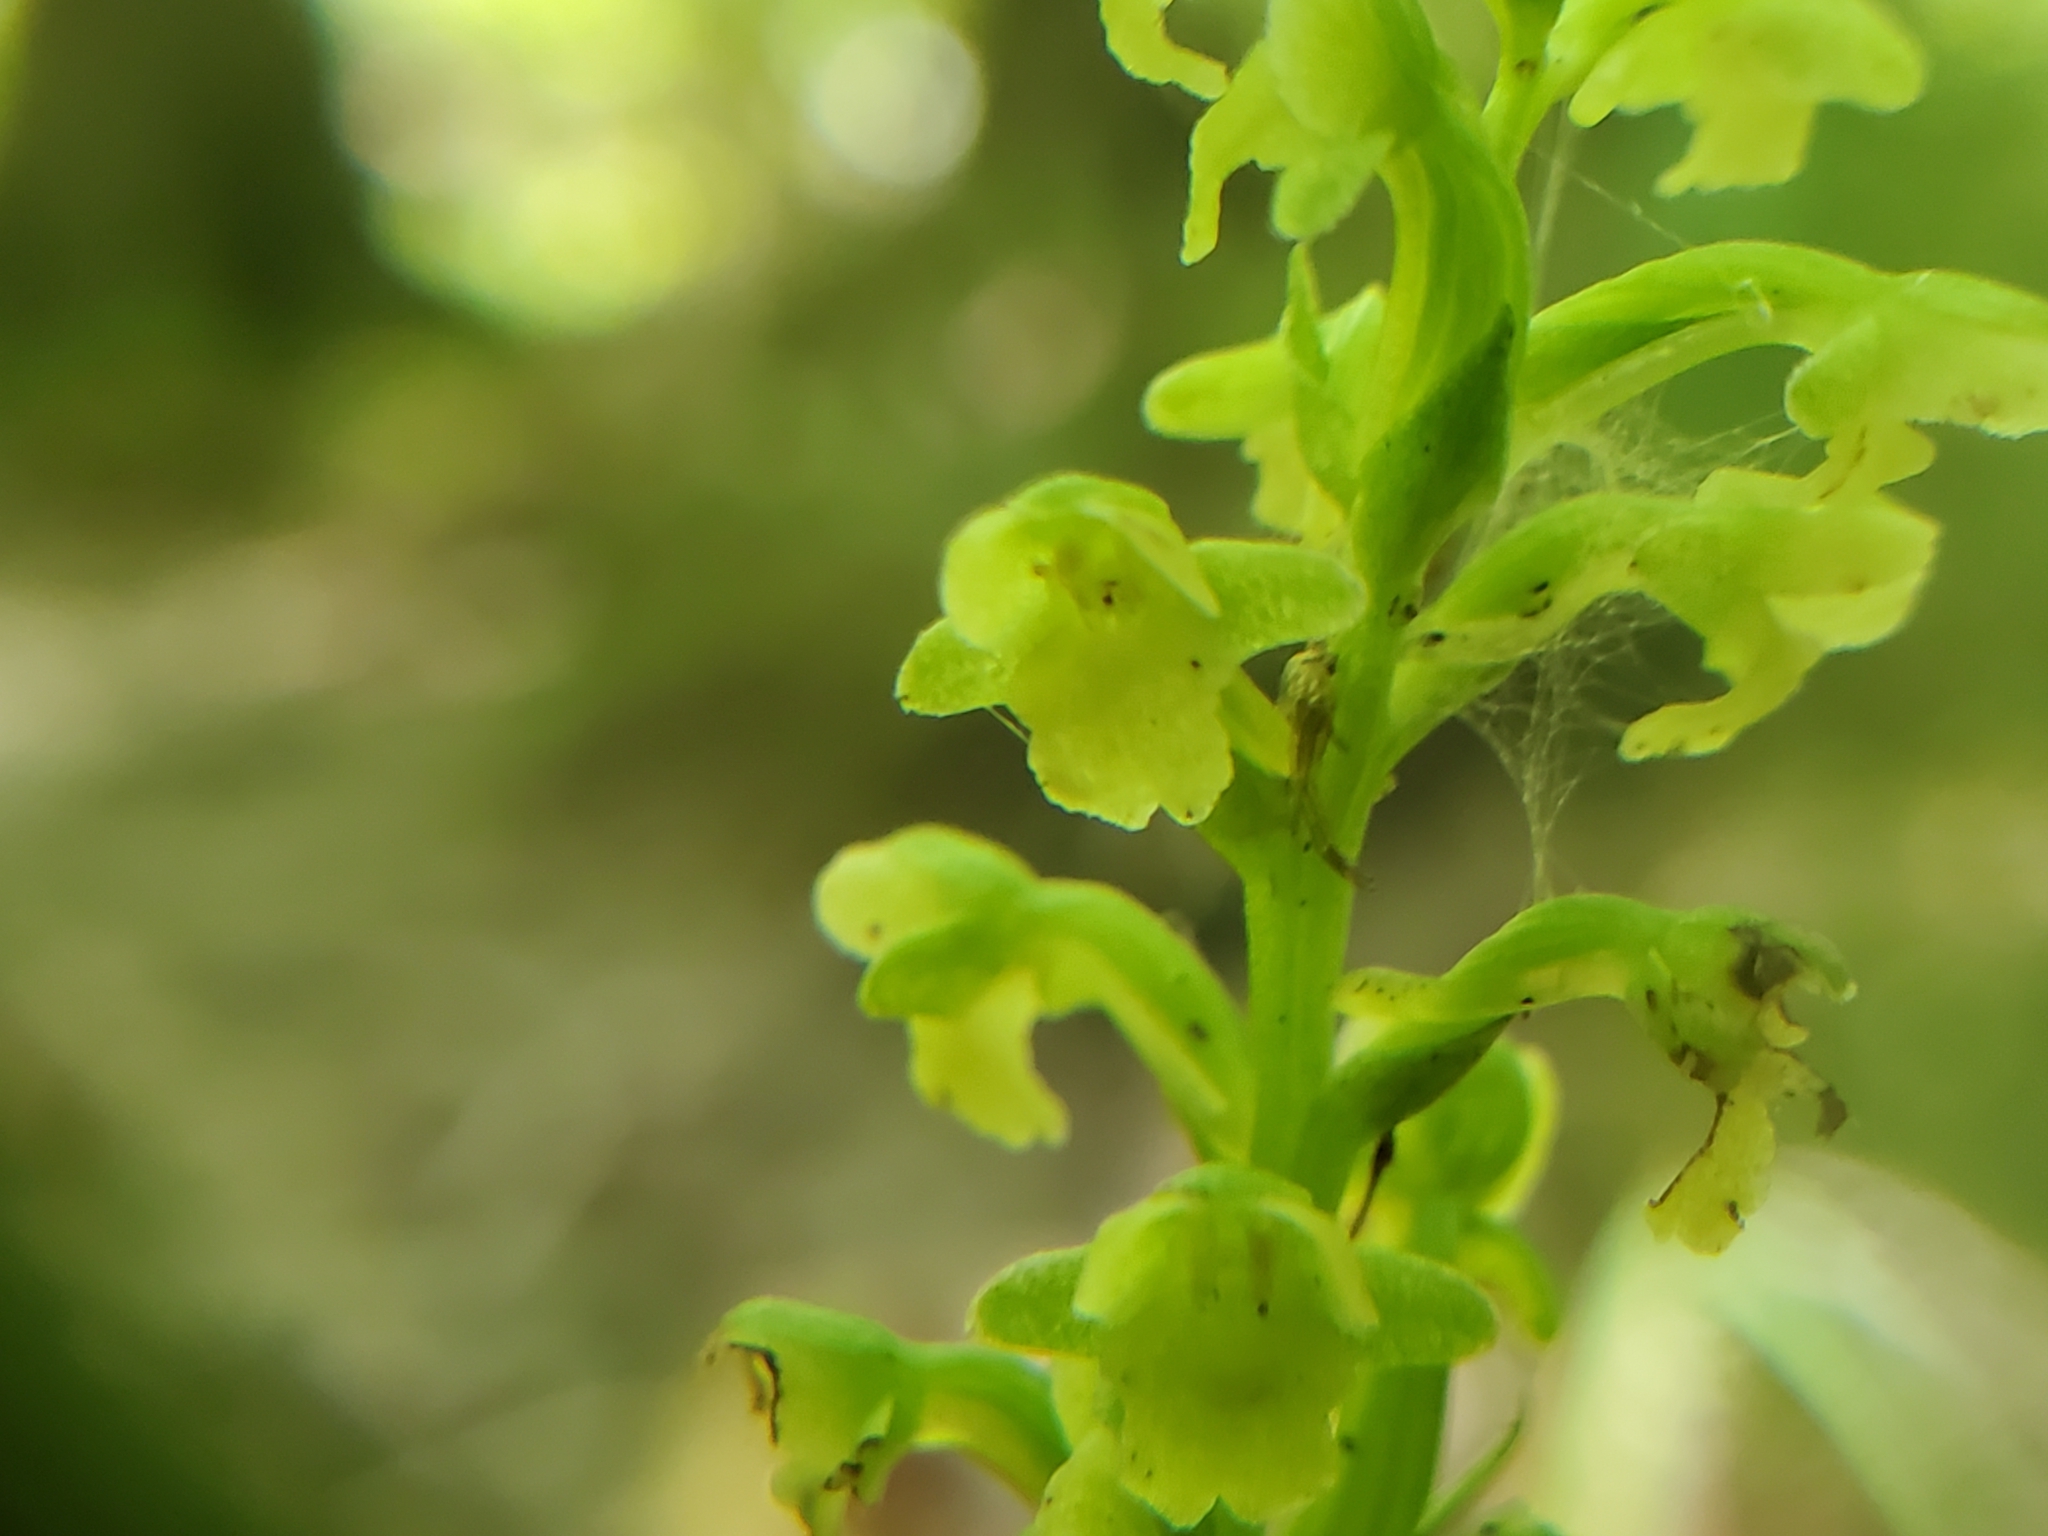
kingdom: Plantae
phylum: Tracheophyta
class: Liliopsida
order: Asparagales
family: Orchidaceae
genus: Platanthera
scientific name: Platanthera flava
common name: Gypsy-spikes
